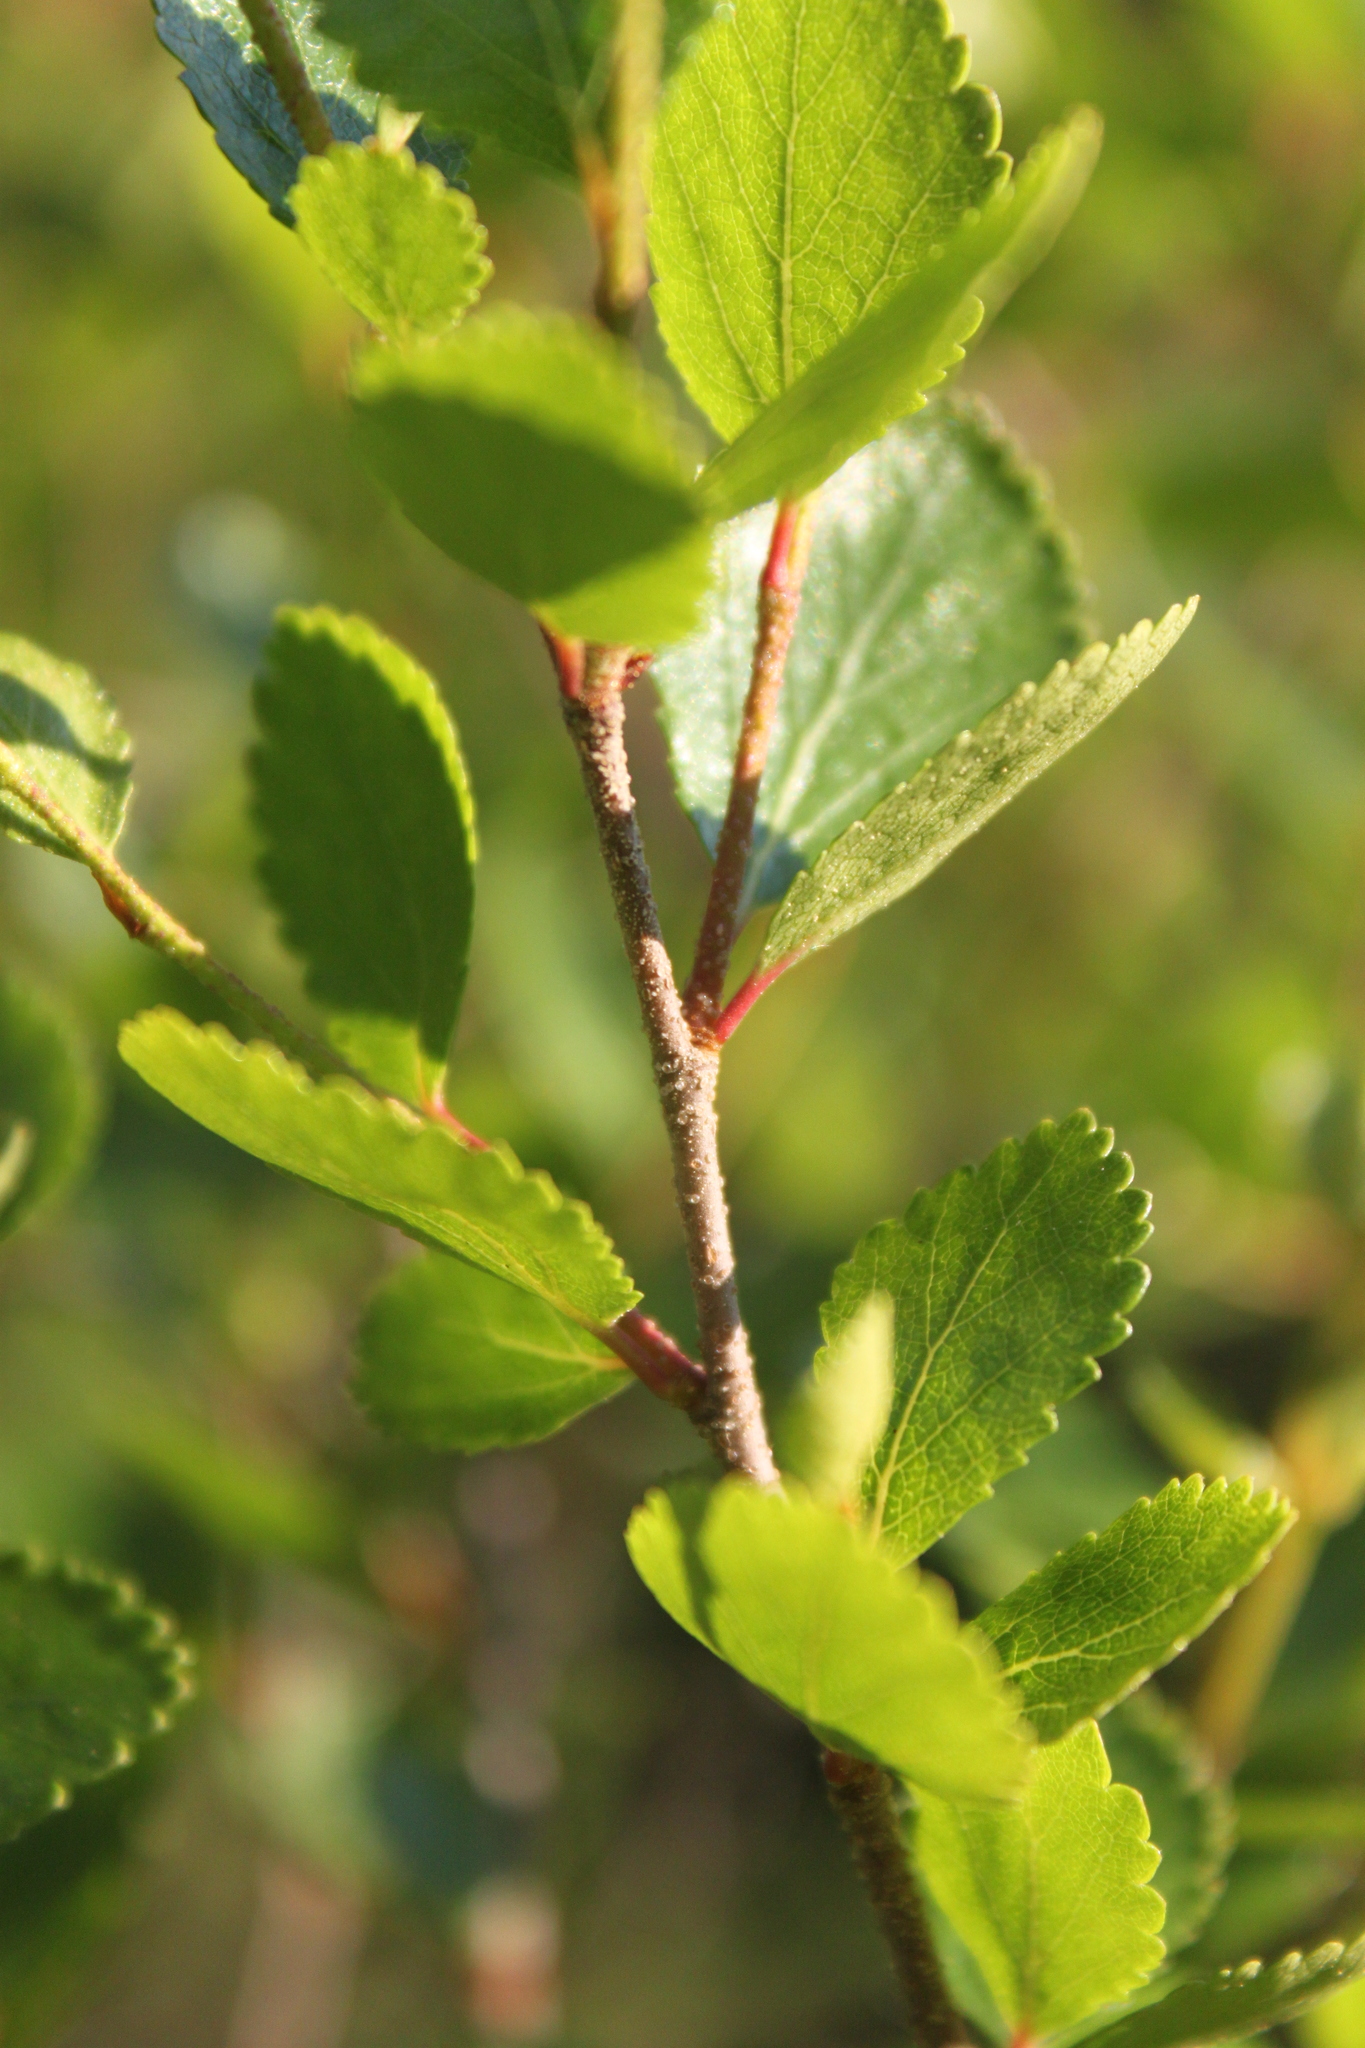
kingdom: Plantae
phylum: Tracheophyta
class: Magnoliopsida
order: Fagales
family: Betulaceae
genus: Betula
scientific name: Betula glandulosa
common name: Dwarf birch
